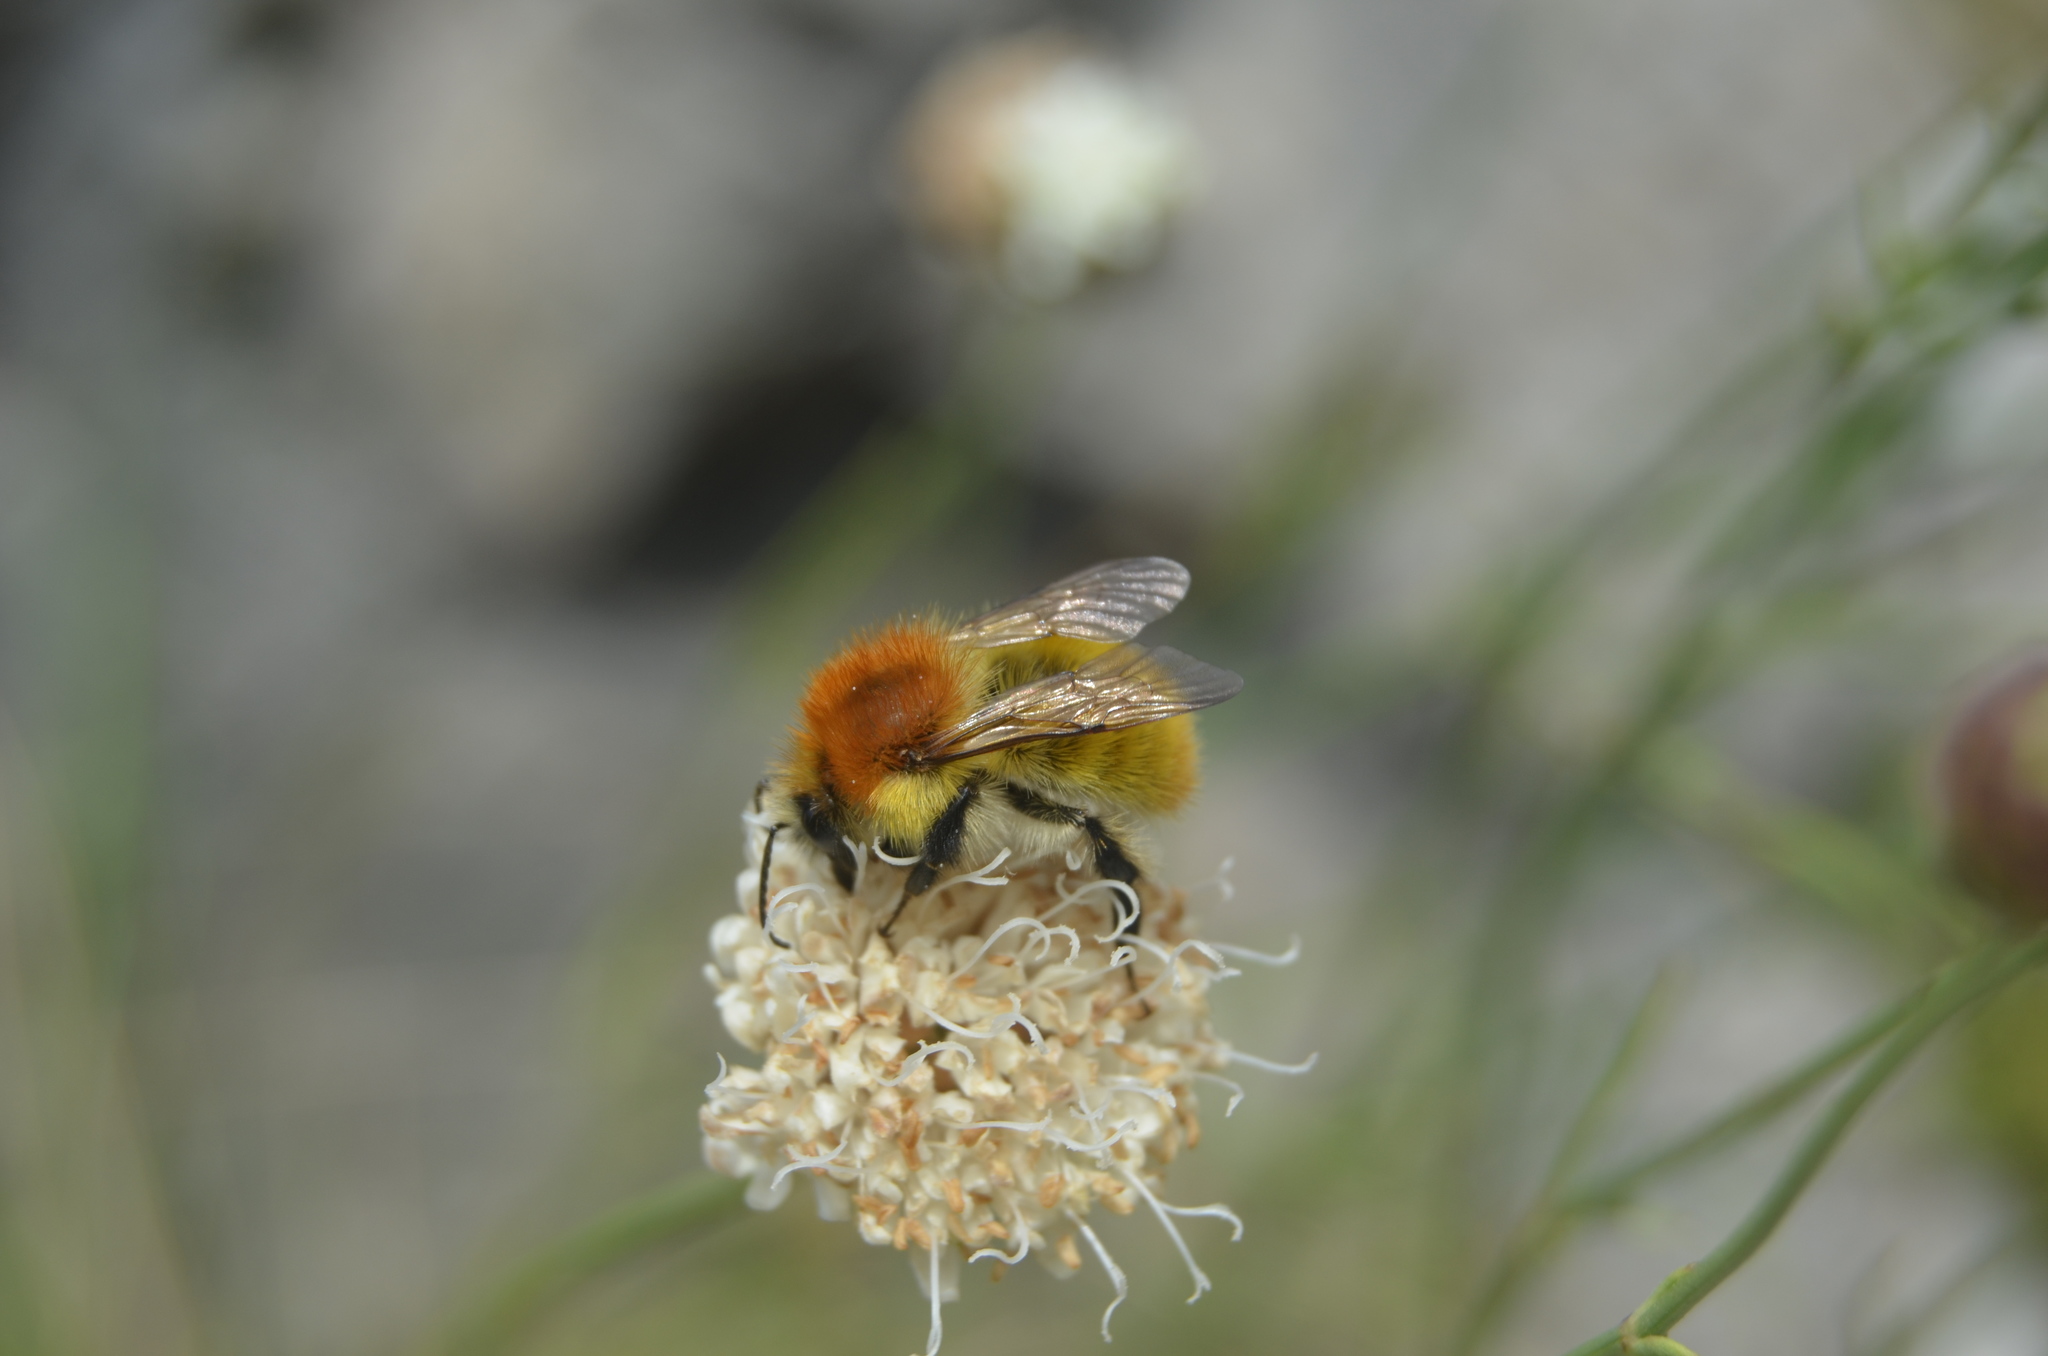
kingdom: Animalia
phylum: Arthropoda
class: Insecta
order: Hymenoptera
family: Apidae
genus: Bombus
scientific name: Bombus pascuorum
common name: Common carder bee
